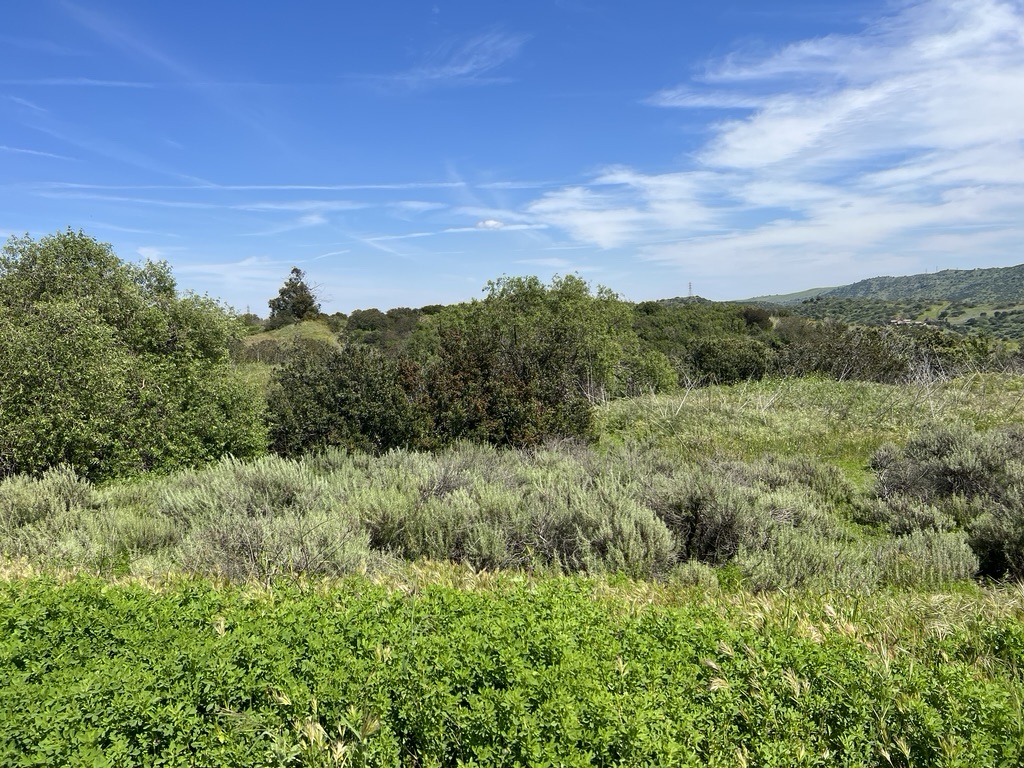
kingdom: Plantae
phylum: Tracheophyta
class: Magnoliopsida
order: Asterales
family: Asteraceae
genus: Artemisia
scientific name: Artemisia californica
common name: California sagebrush
